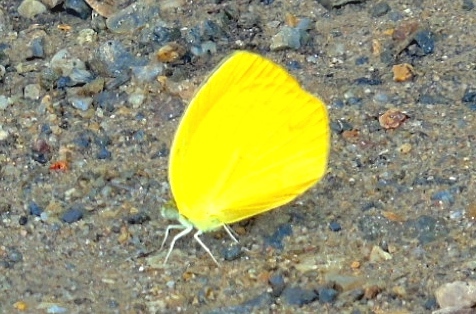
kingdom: Animalia
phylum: Arthropoda
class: Insecta
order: Lepidoptera
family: Pieridae
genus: Pyrisitia
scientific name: Pyrisitia proterpia
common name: Tailed orange
